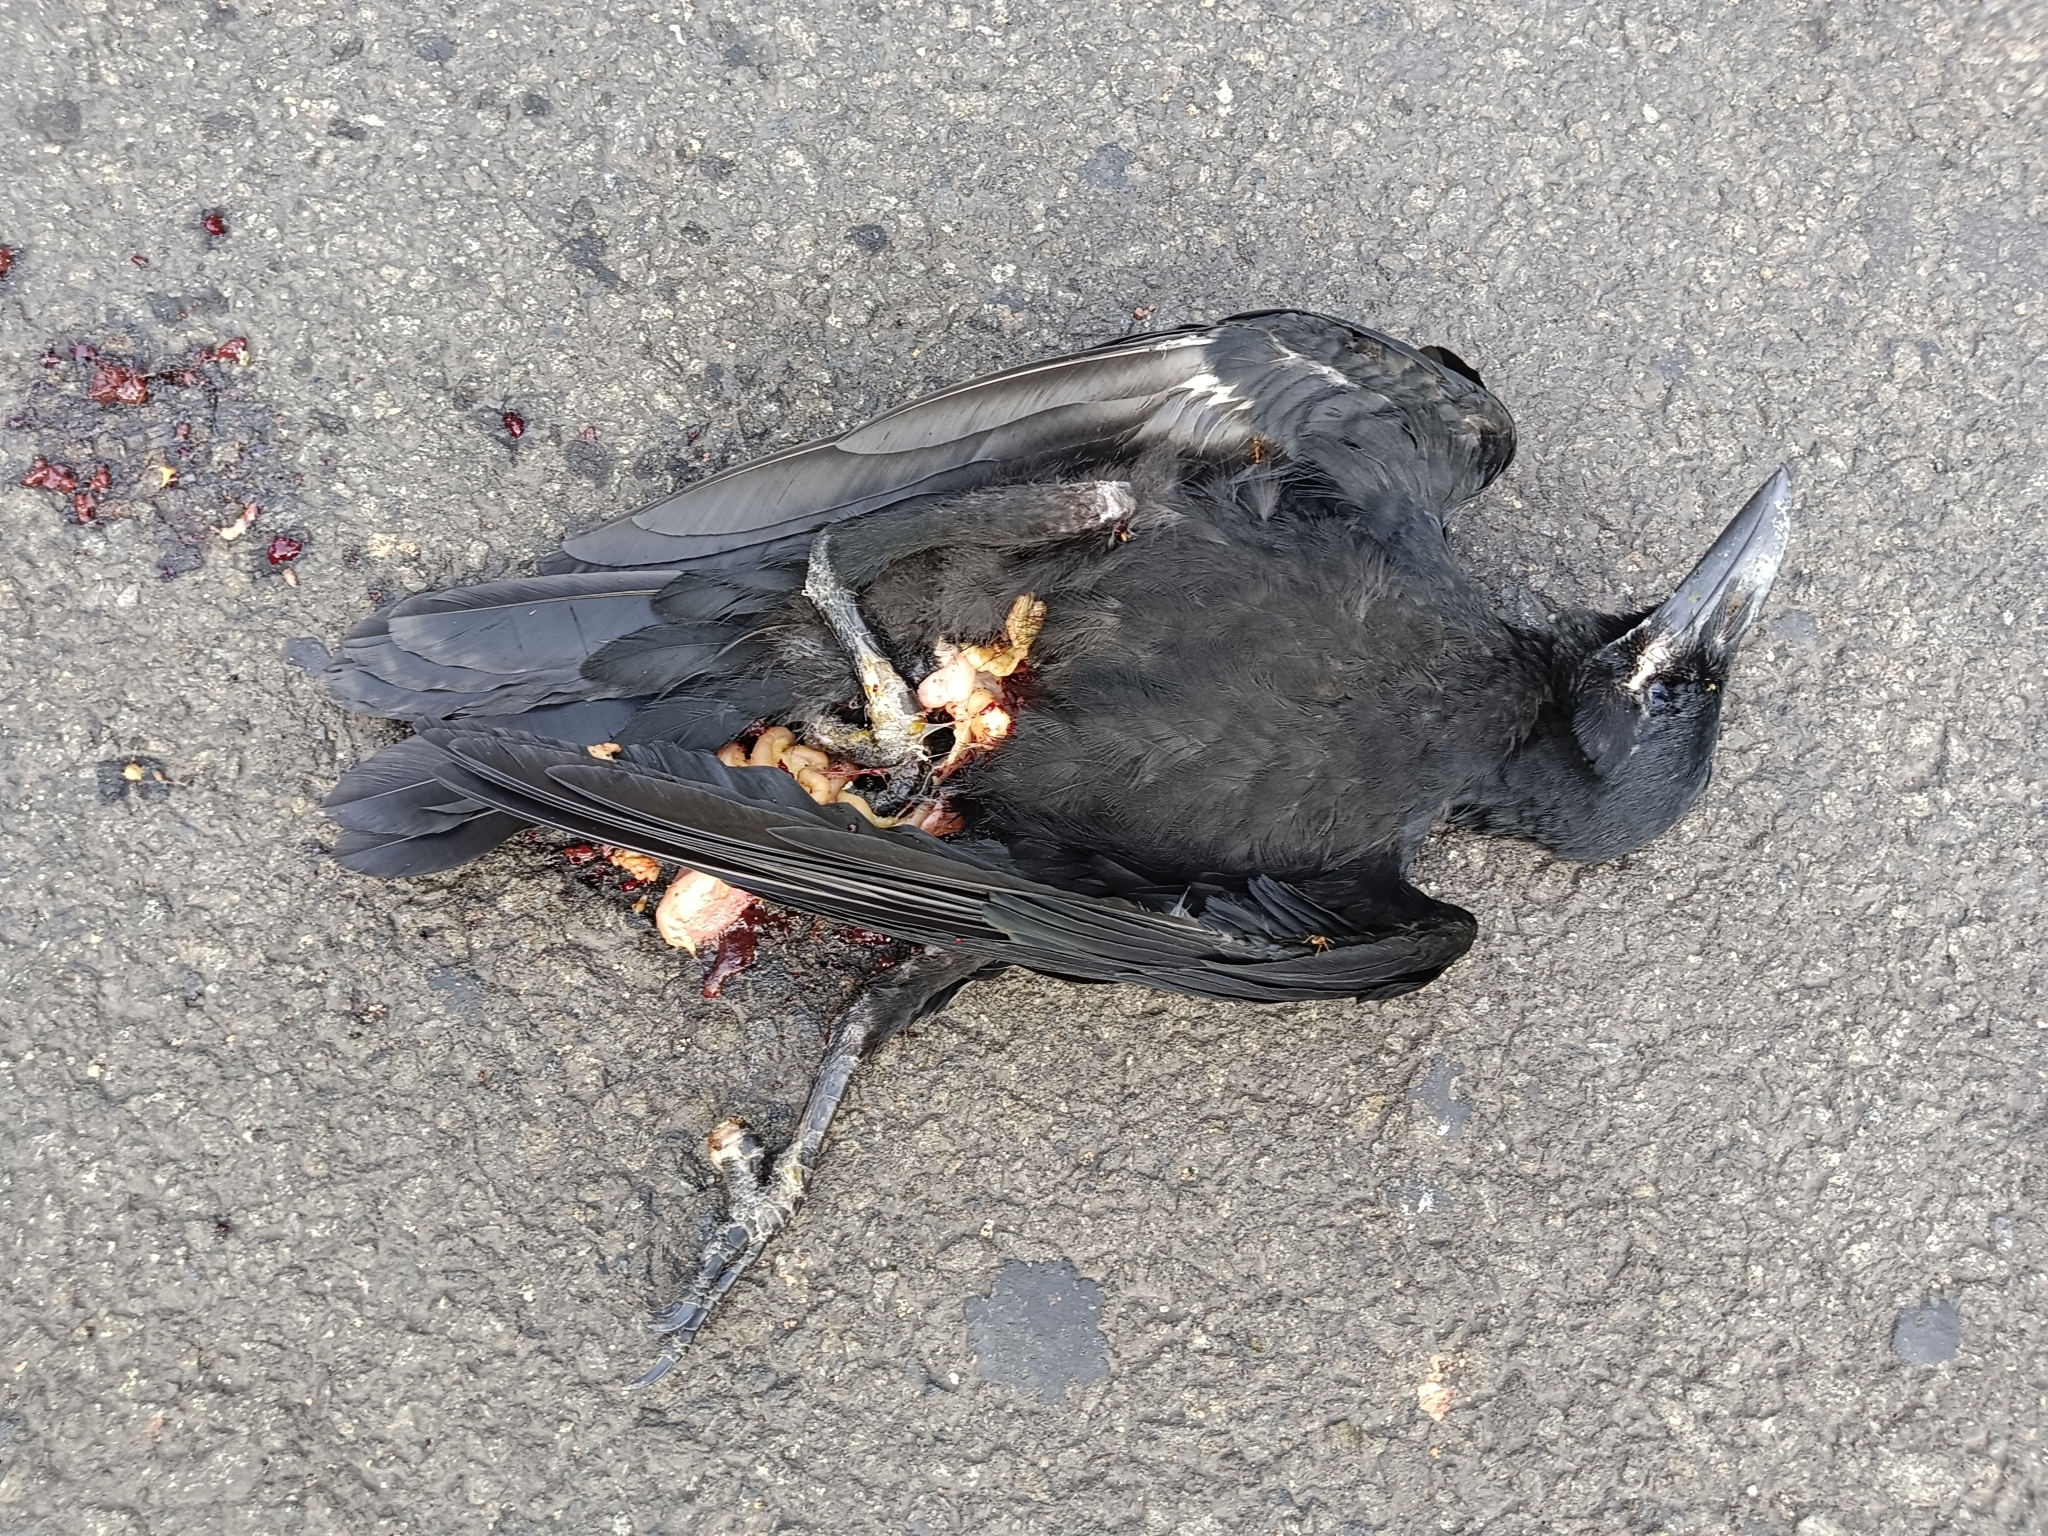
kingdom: Animalia
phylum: Chordata
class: Aves
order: Passeriformes
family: Corvidae
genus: Corvus
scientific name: Corvus splendens
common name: House crow
